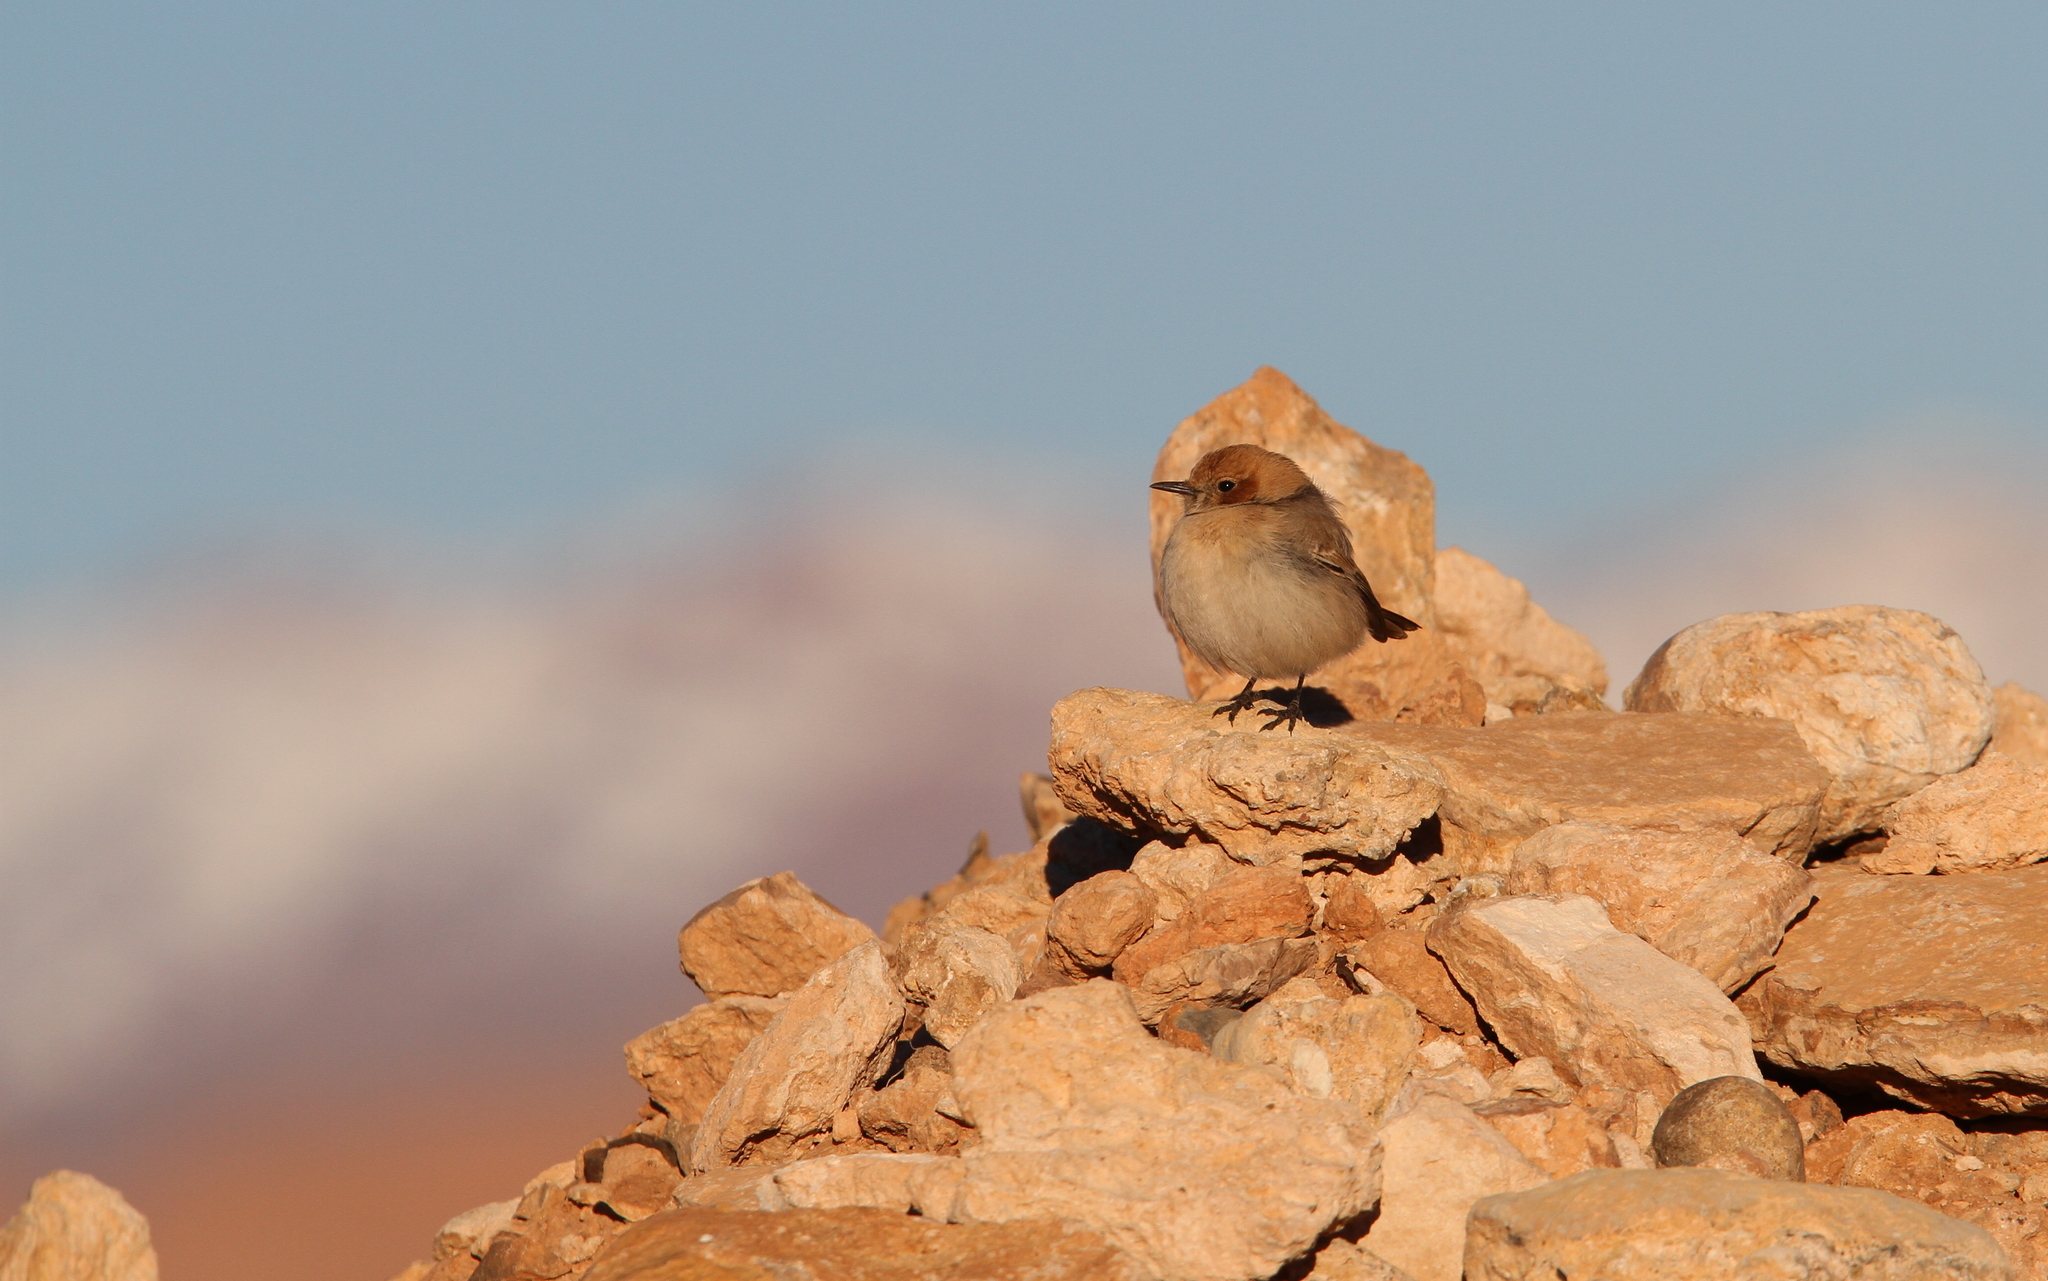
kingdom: Animalia
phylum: Chordata
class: Aves
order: Passeriformes
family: Muscicapidae
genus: Oenanthe
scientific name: Oenanthe moesta
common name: Red-rumped wheatear
